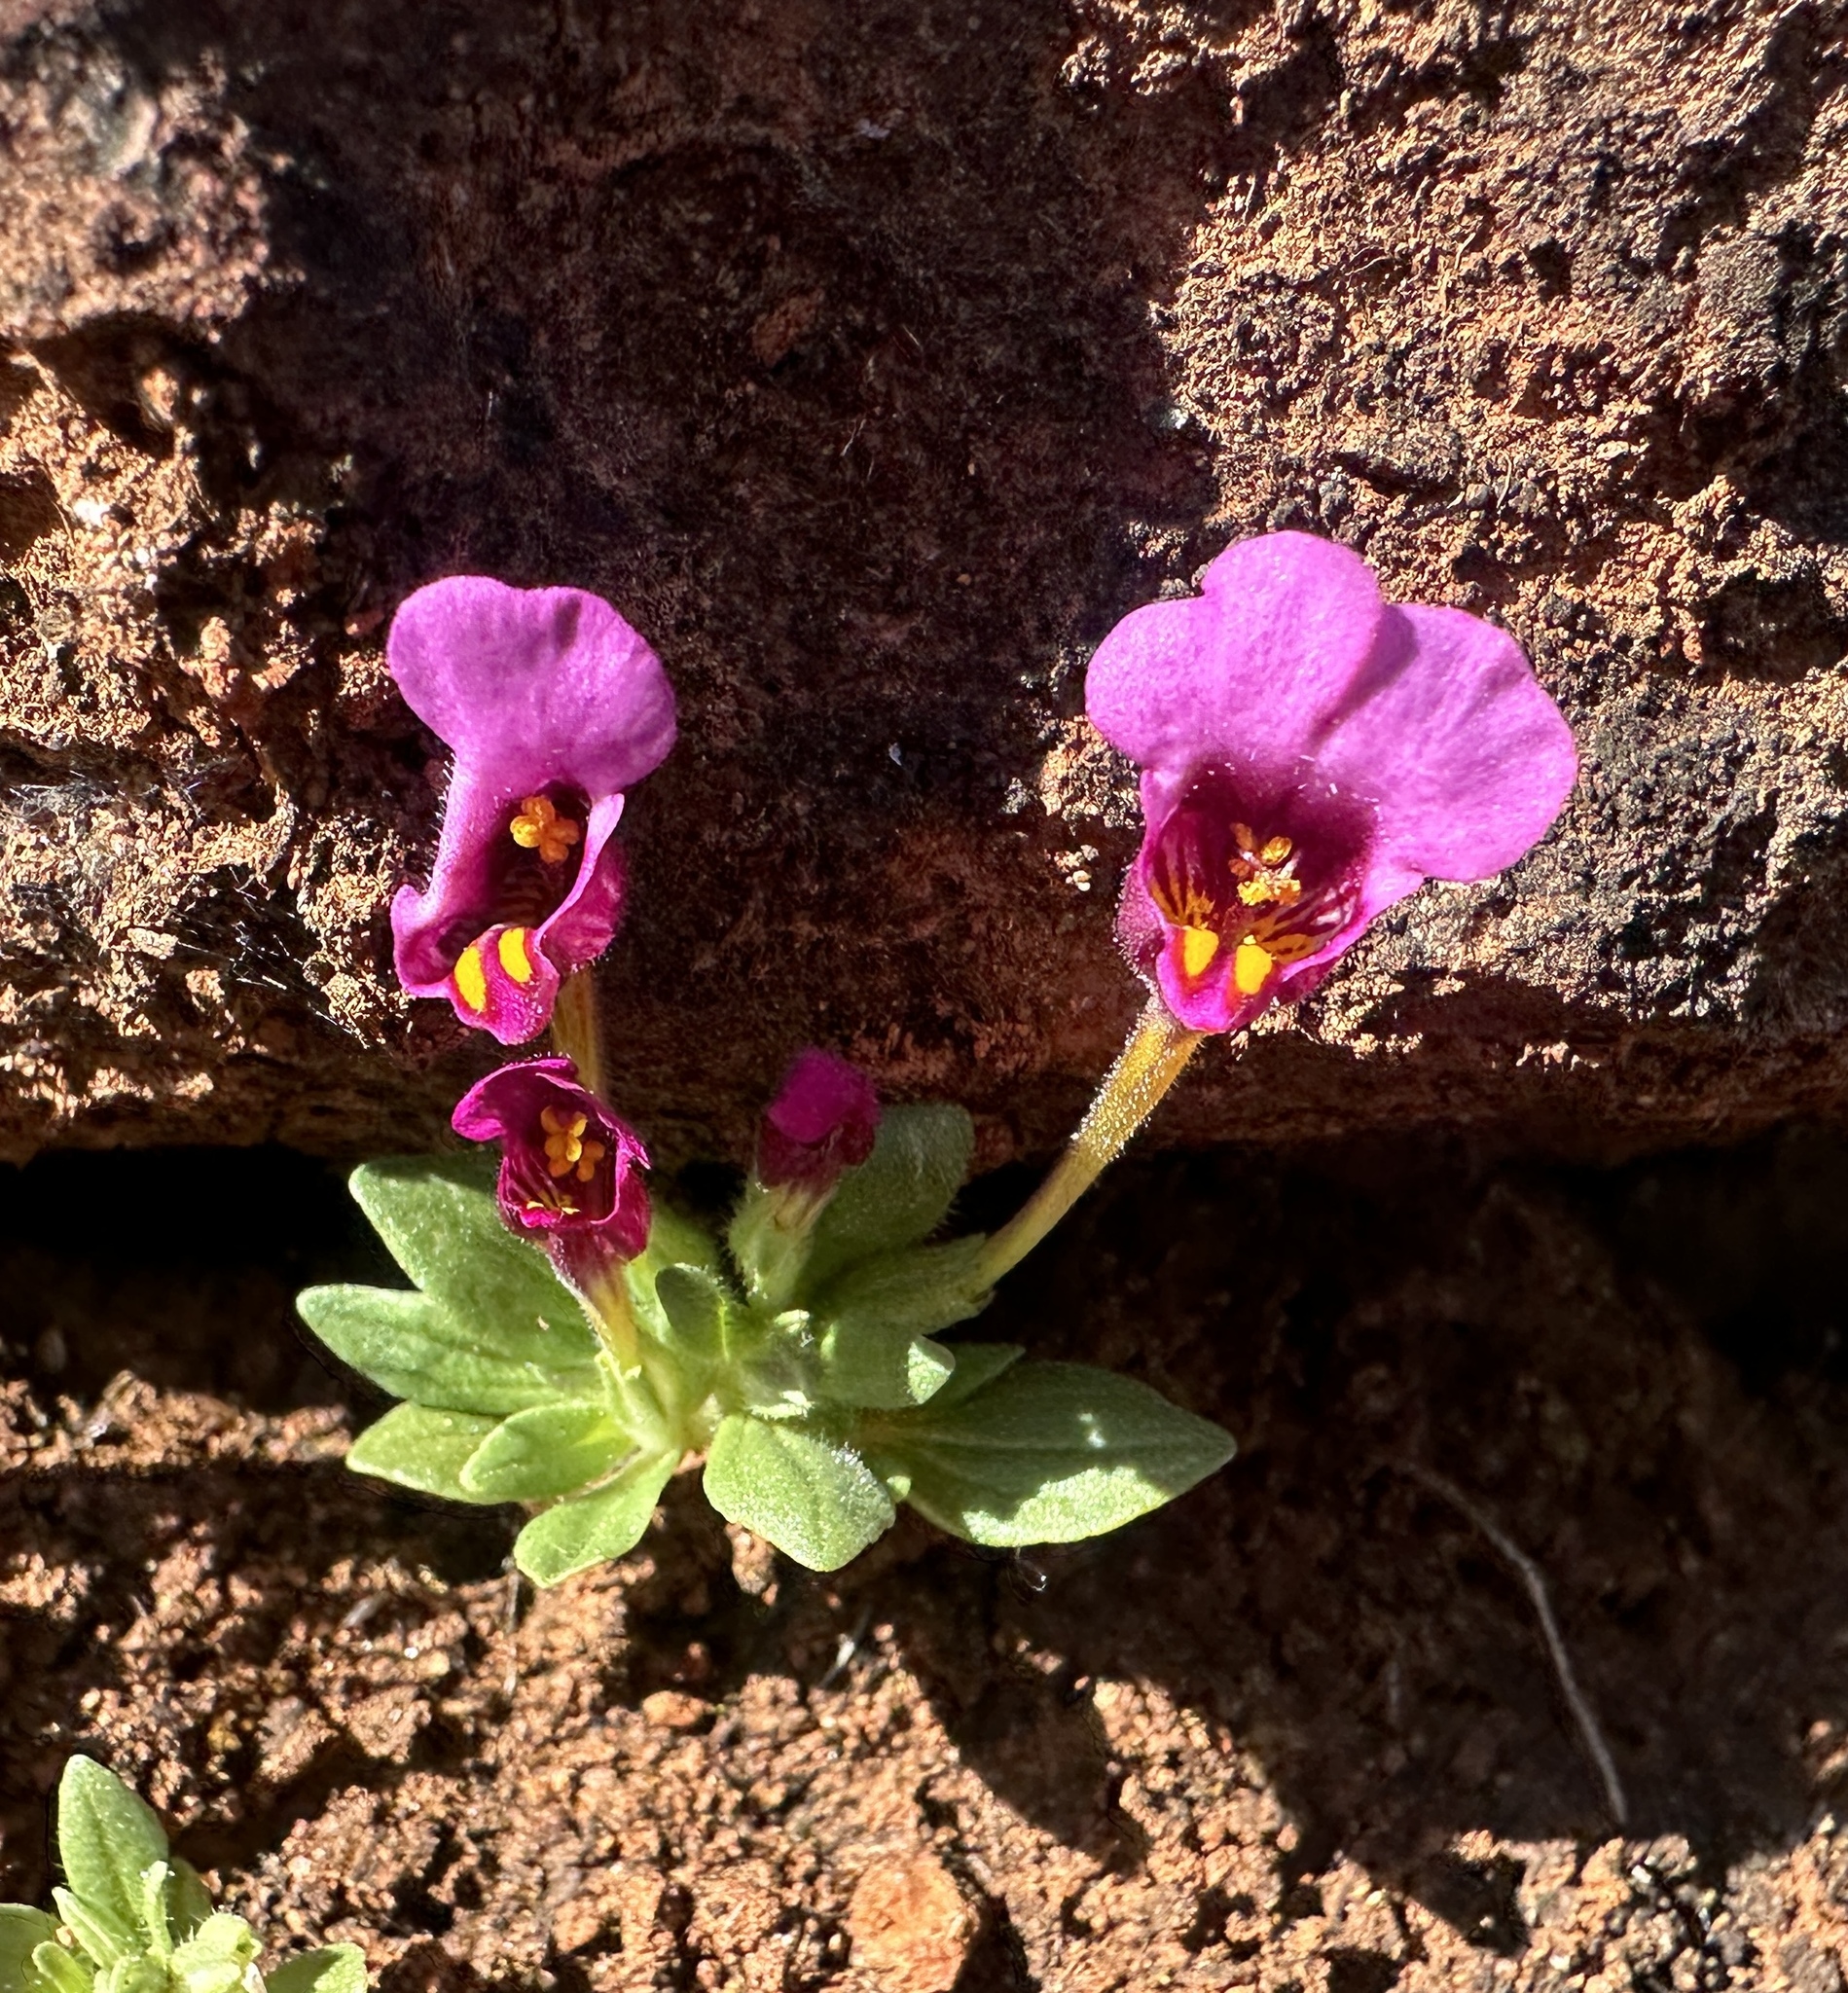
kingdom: Plantae
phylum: Tracheophyta
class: Magnoliopsida
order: Lamiales
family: Phrymaceae
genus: Diplacus
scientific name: Diplacus douglasii
